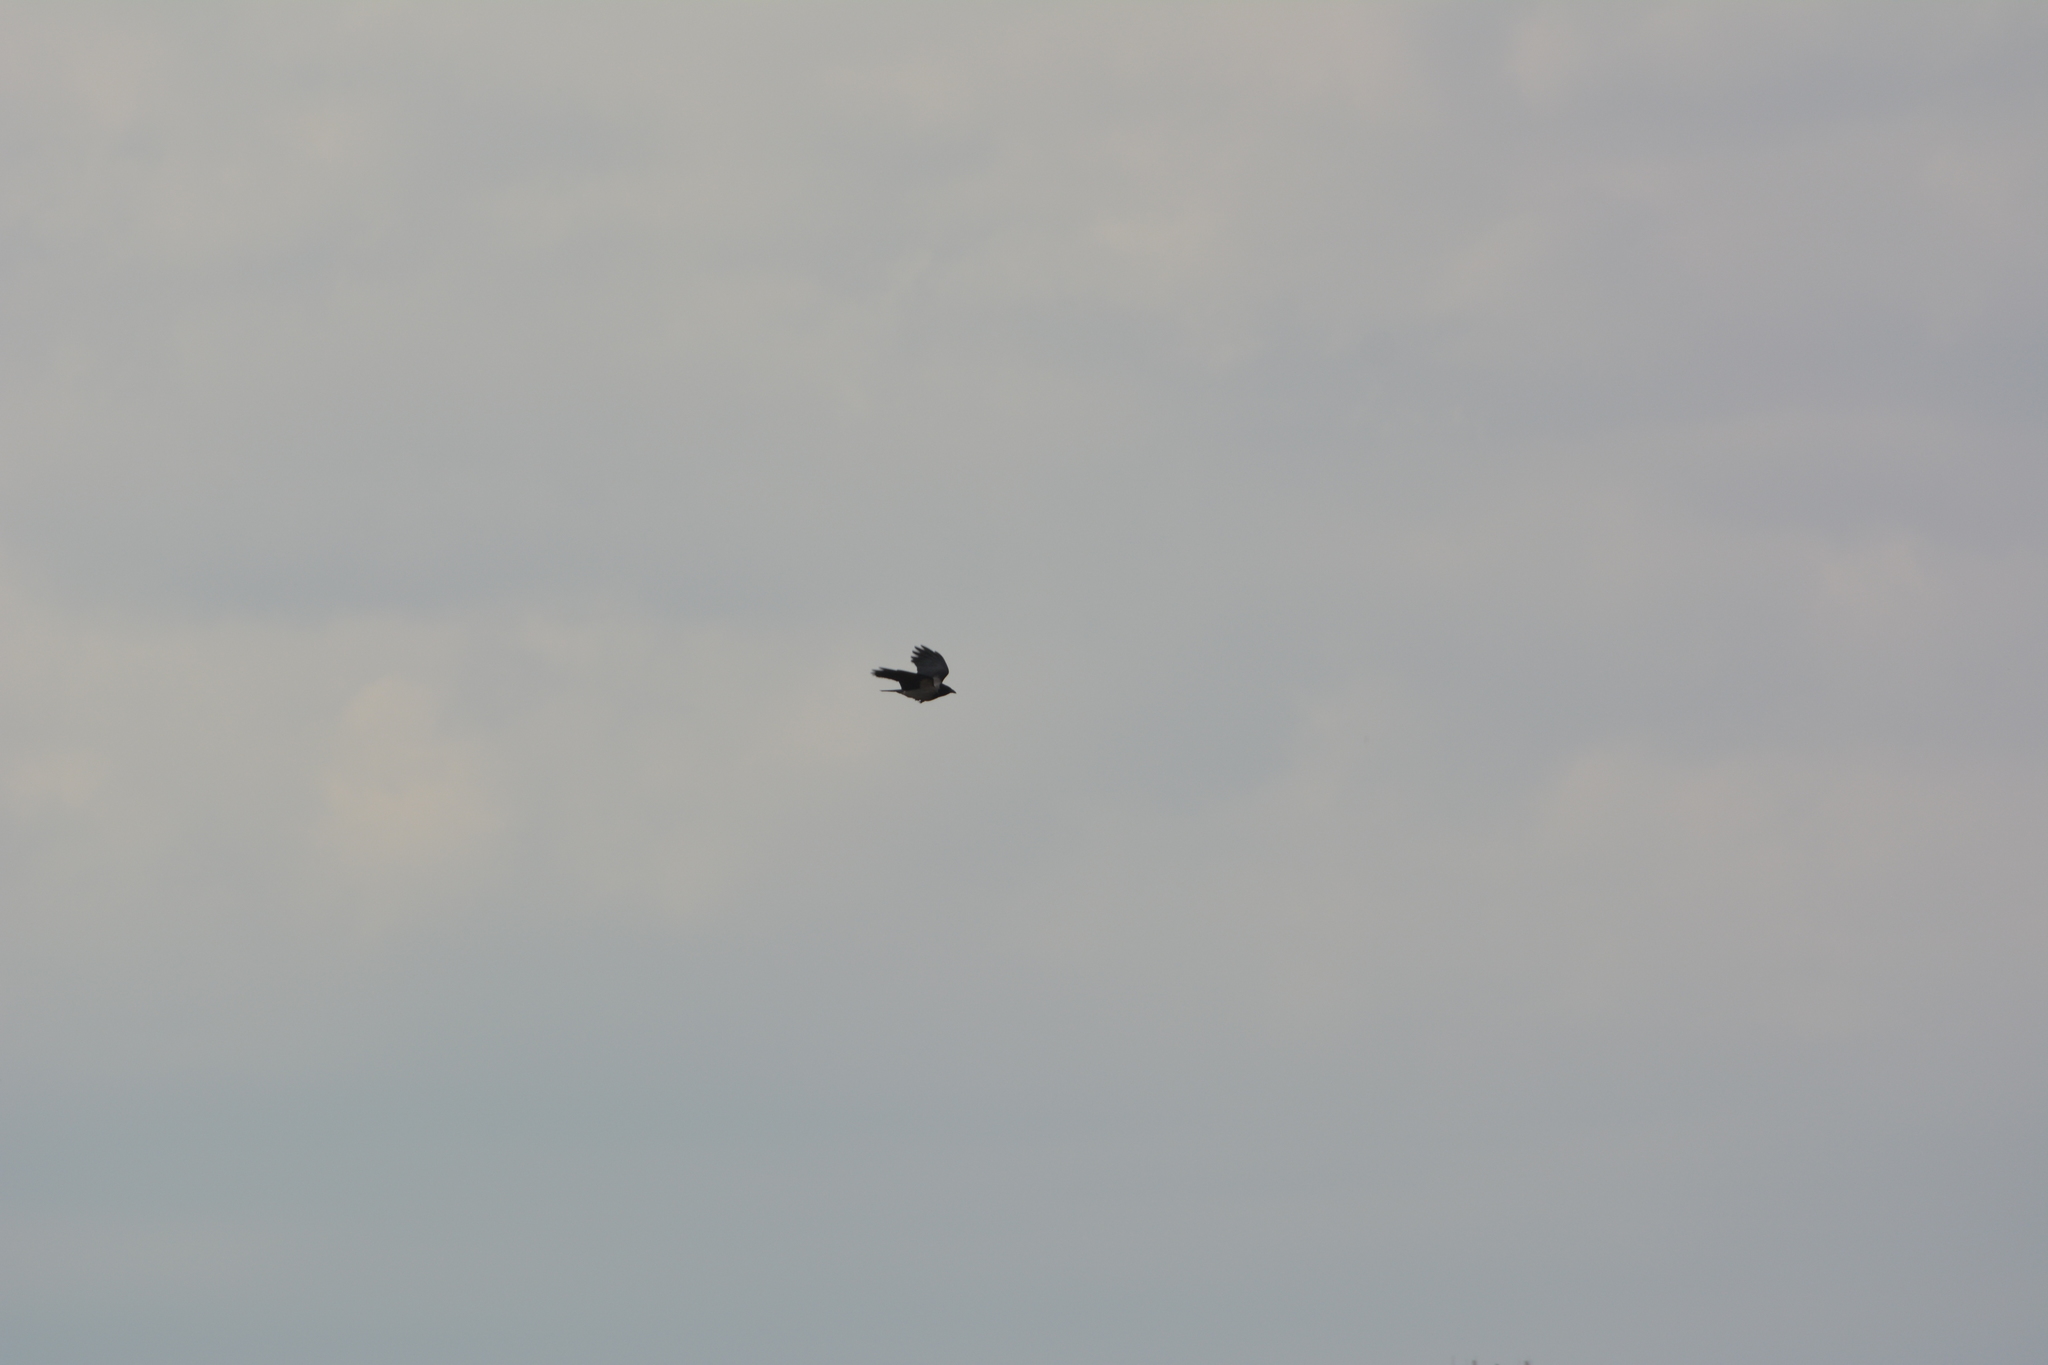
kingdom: Animalia
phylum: Chordata
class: Aves
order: Passeriformes
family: Corvidae
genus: Corvus
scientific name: Corvus cornix
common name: Hooded crow
